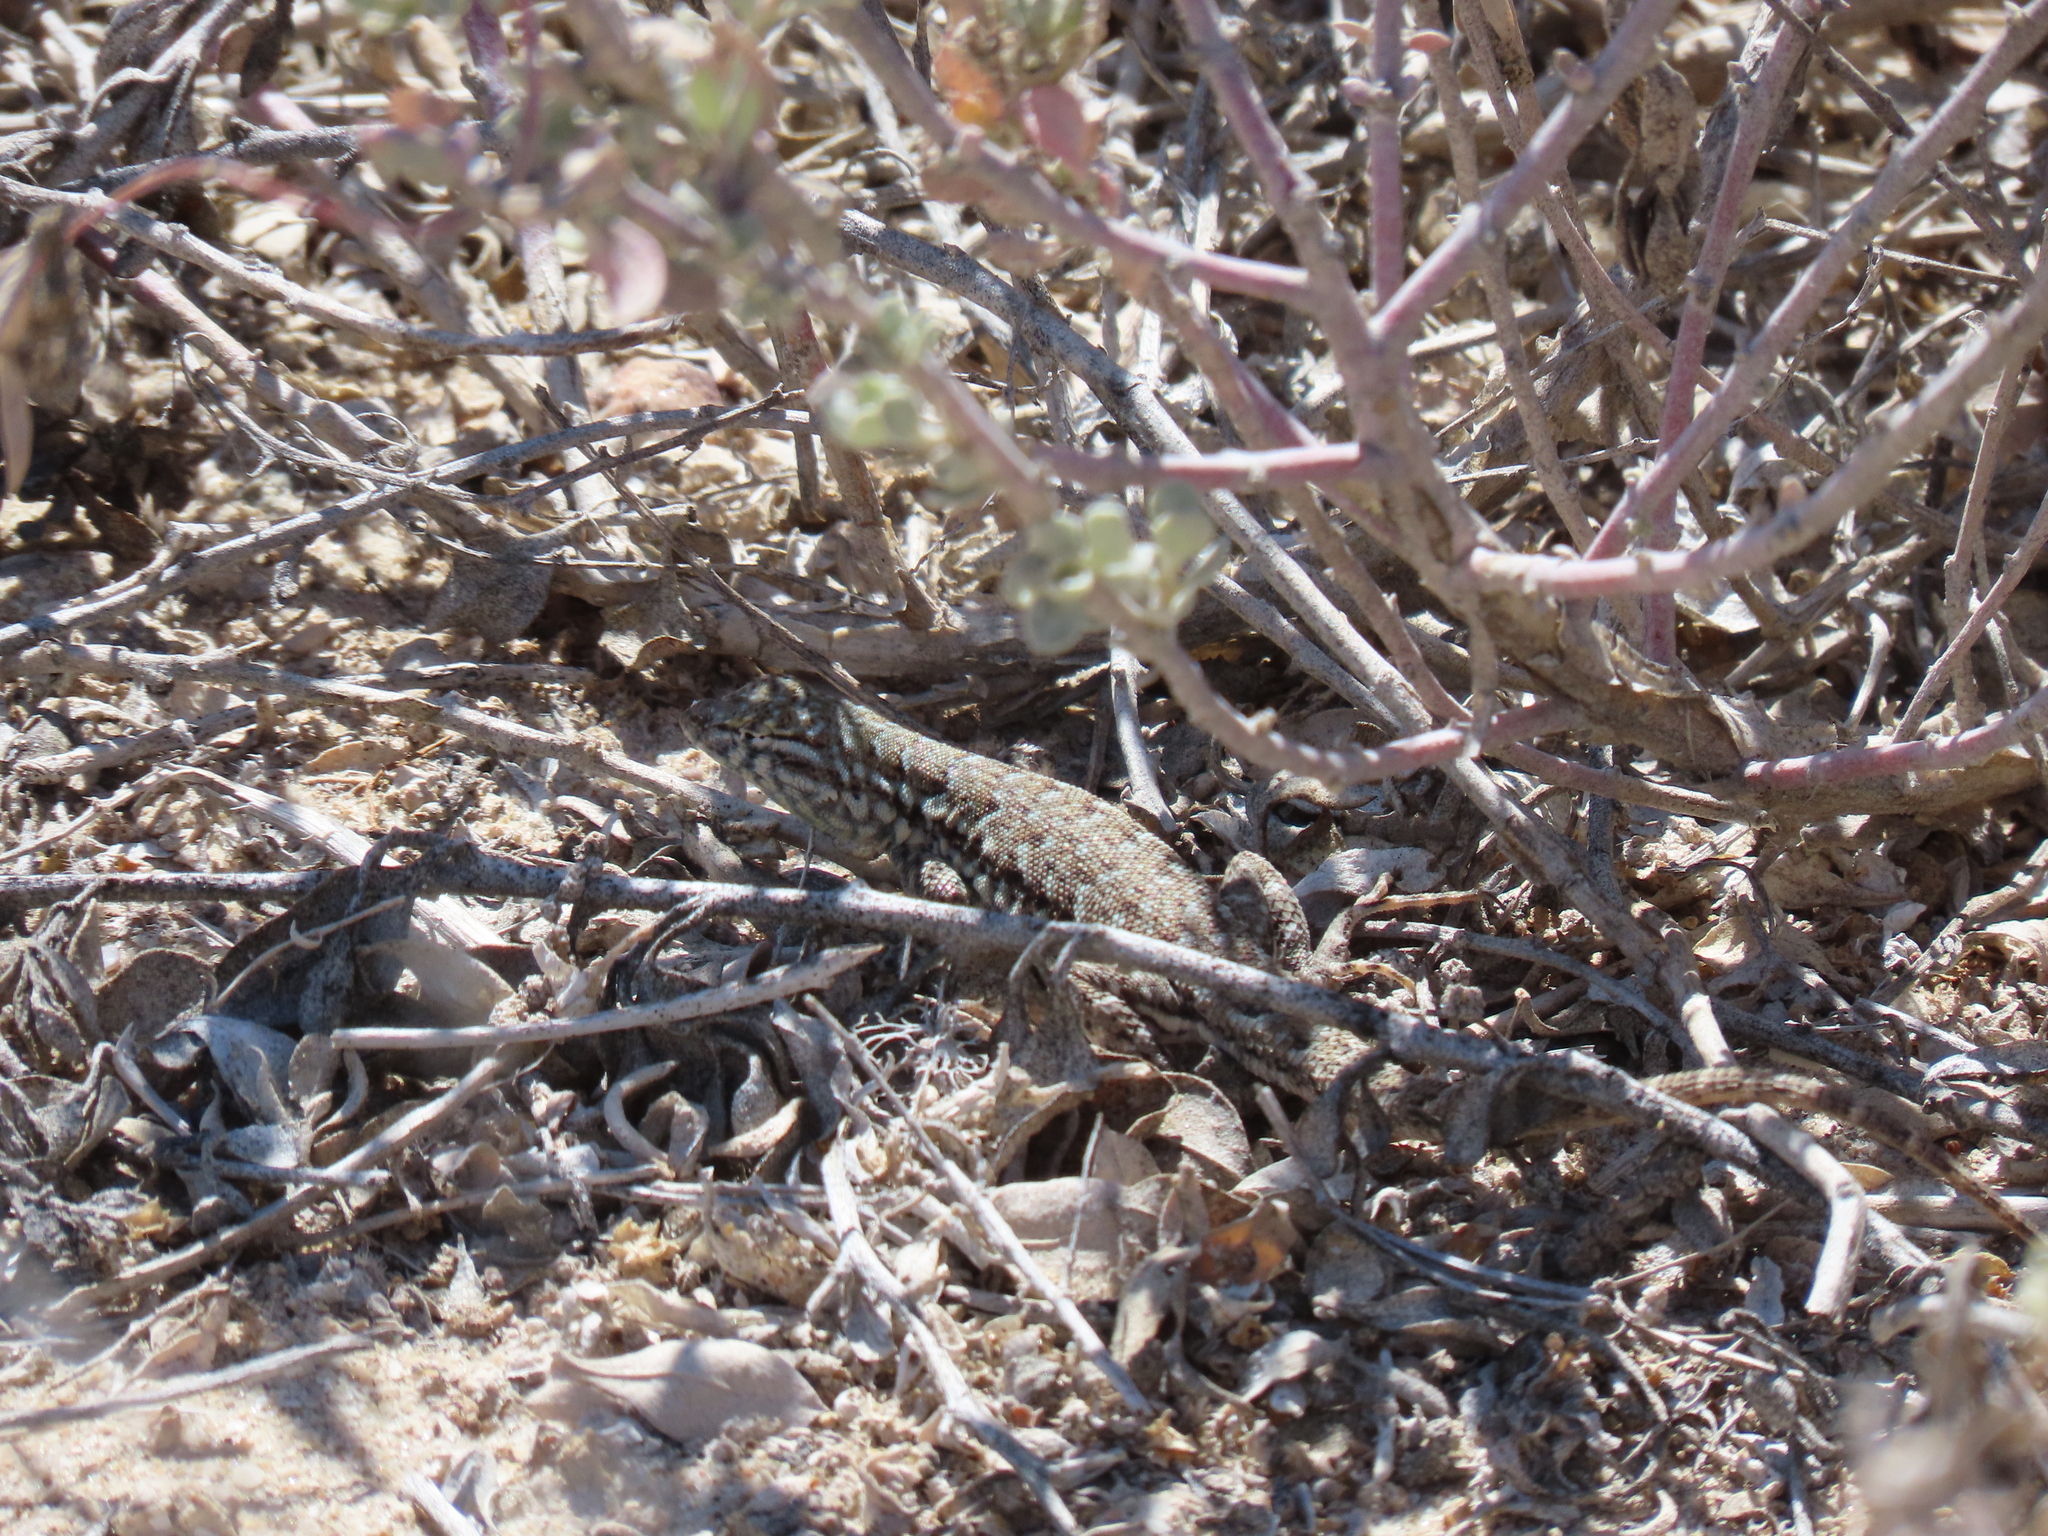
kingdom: Animalia
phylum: Chordata
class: Squamata
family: Phrynosomatidae
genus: Uta
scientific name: Uta stansburiana
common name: Side-blotched lizard
